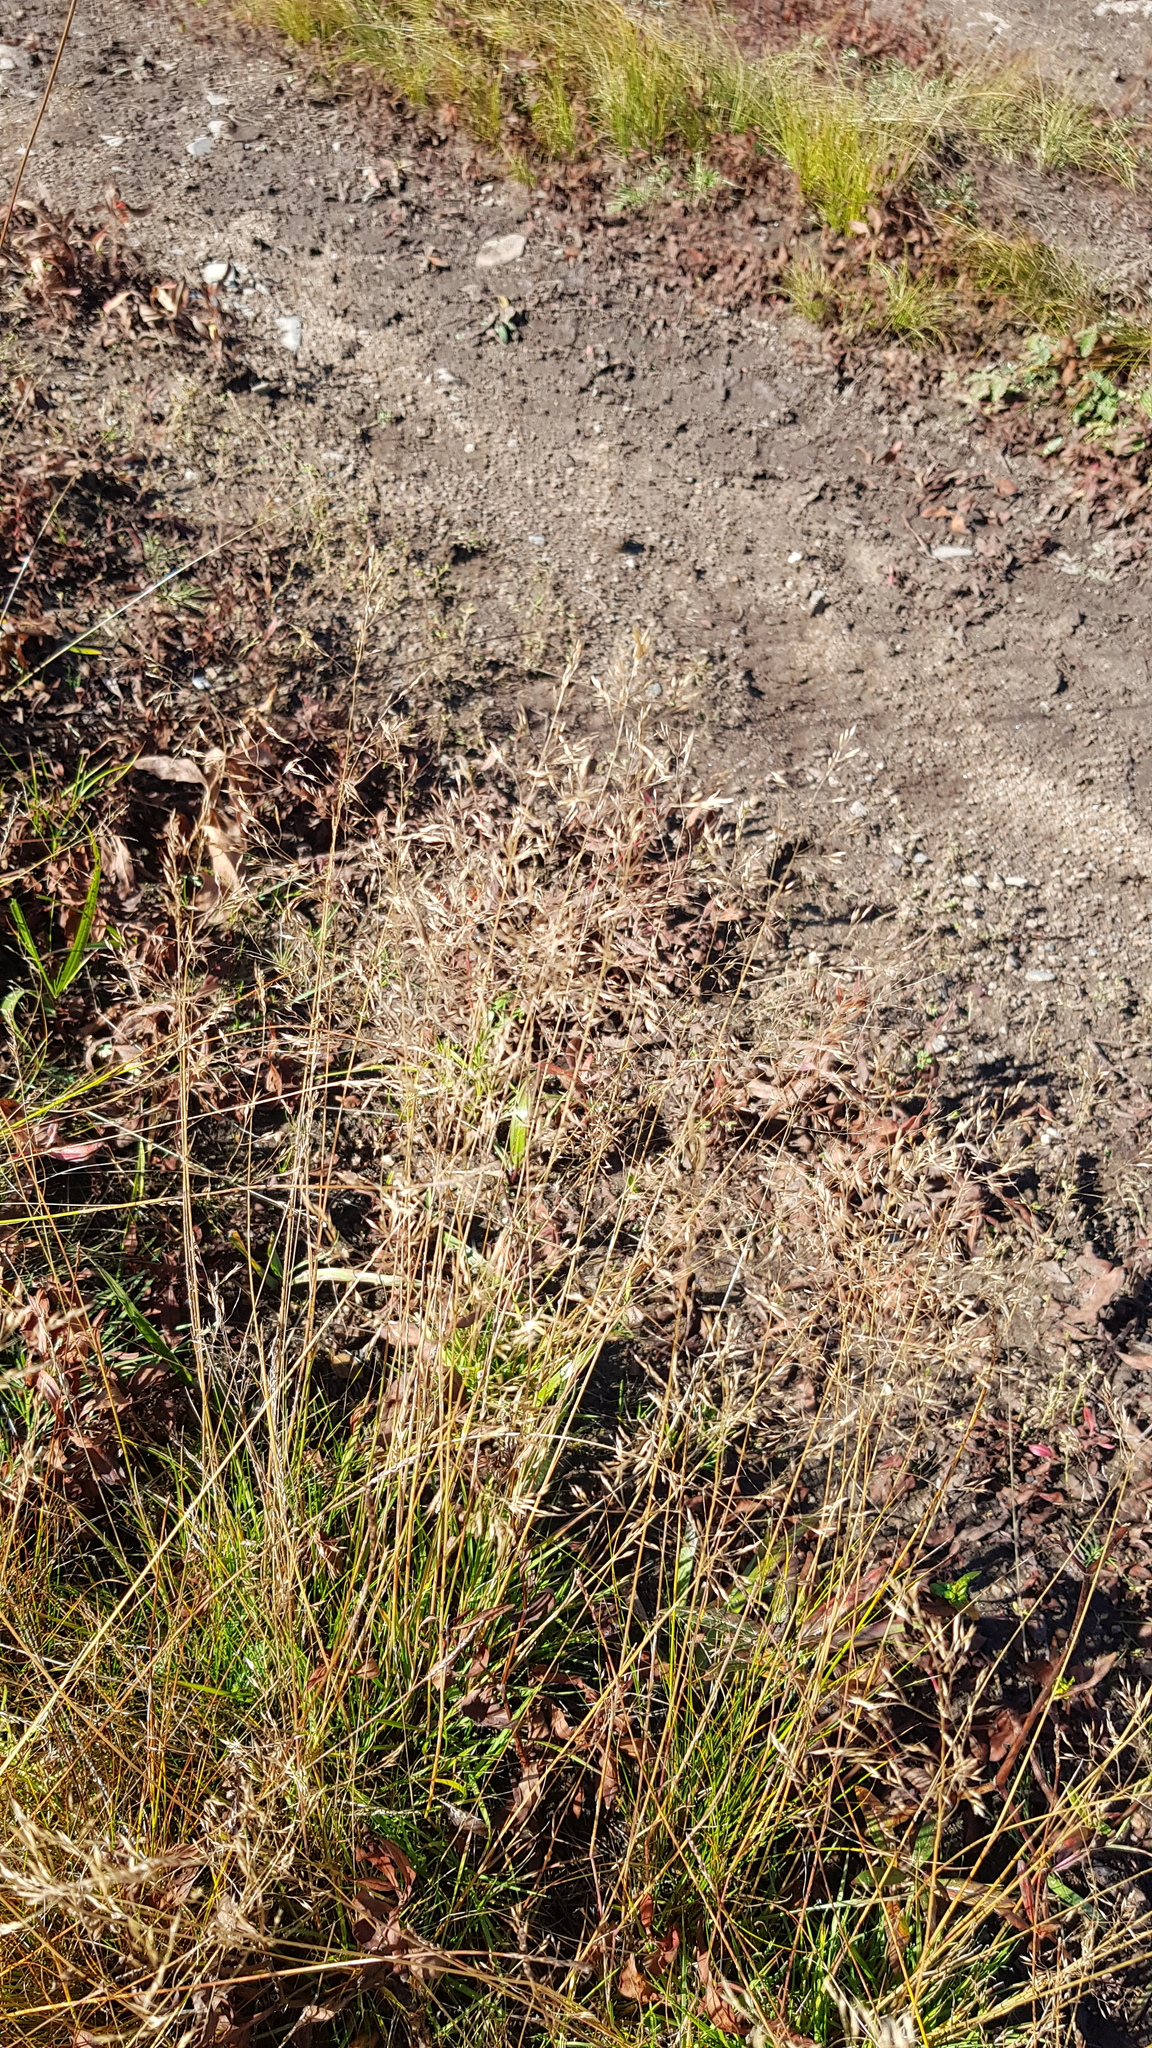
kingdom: Plantae
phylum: Tracheophyta
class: Liliopsida
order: Poales
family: Poaceae
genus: Poa
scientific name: Poa pratensis
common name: Kentucky bluegrass
